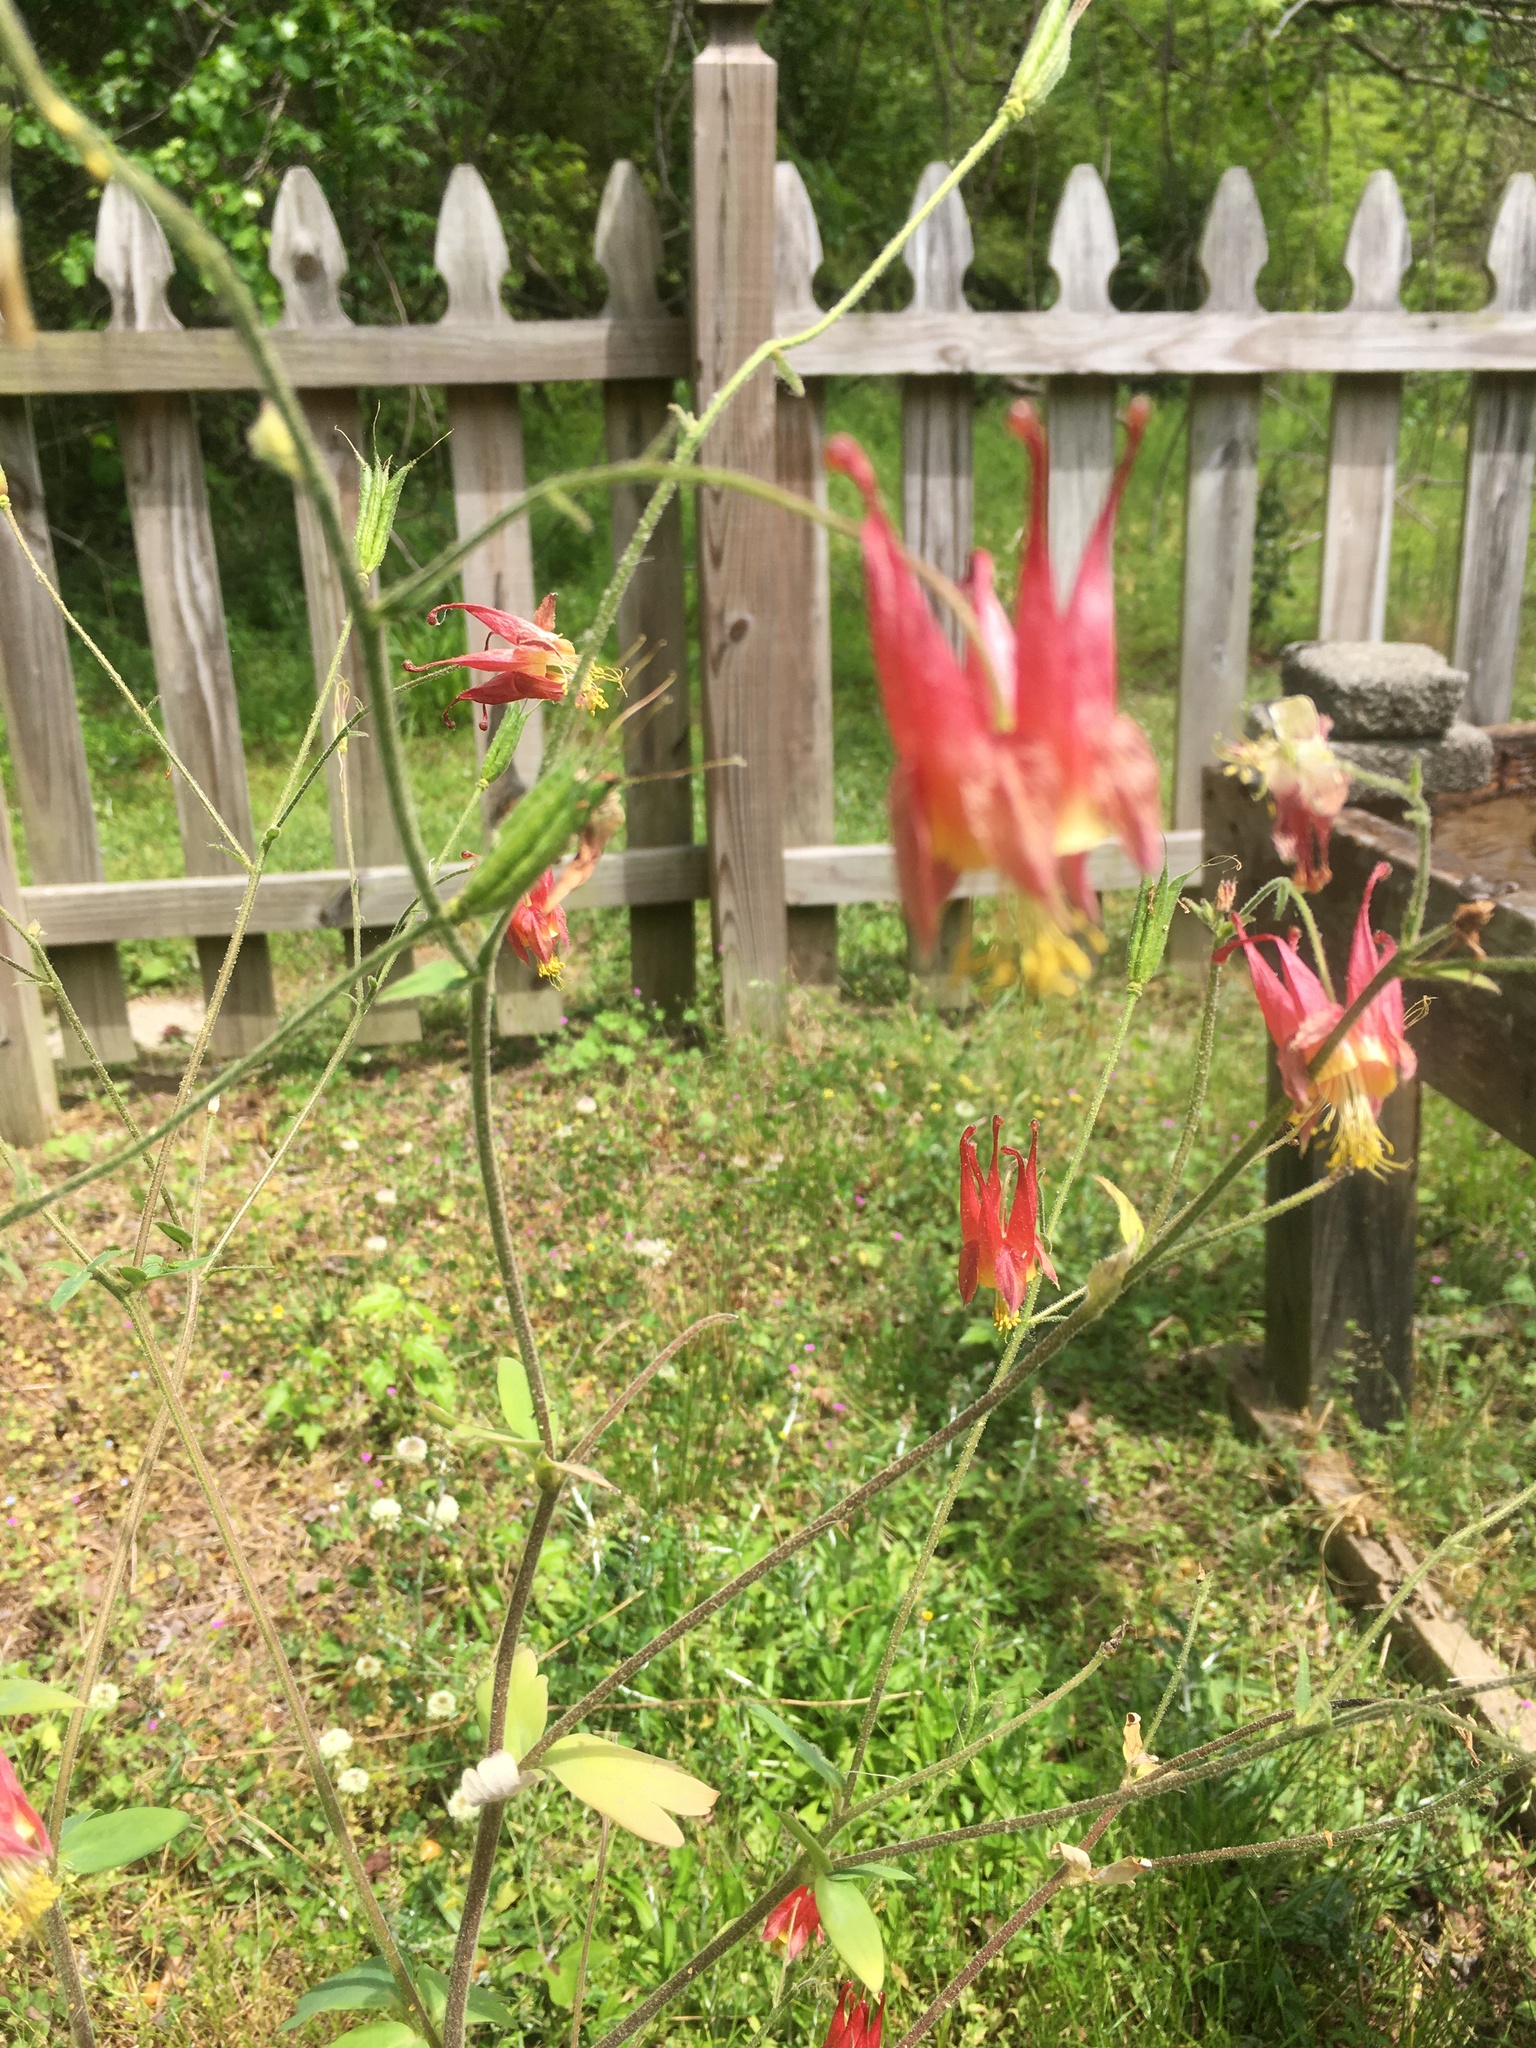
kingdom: Plantae
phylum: Tracheophyta
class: Magnoliopsida
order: Ranunculales
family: Ranunculaceae
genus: Aquilegia
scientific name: Aquilegia canadensis
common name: American columbine
